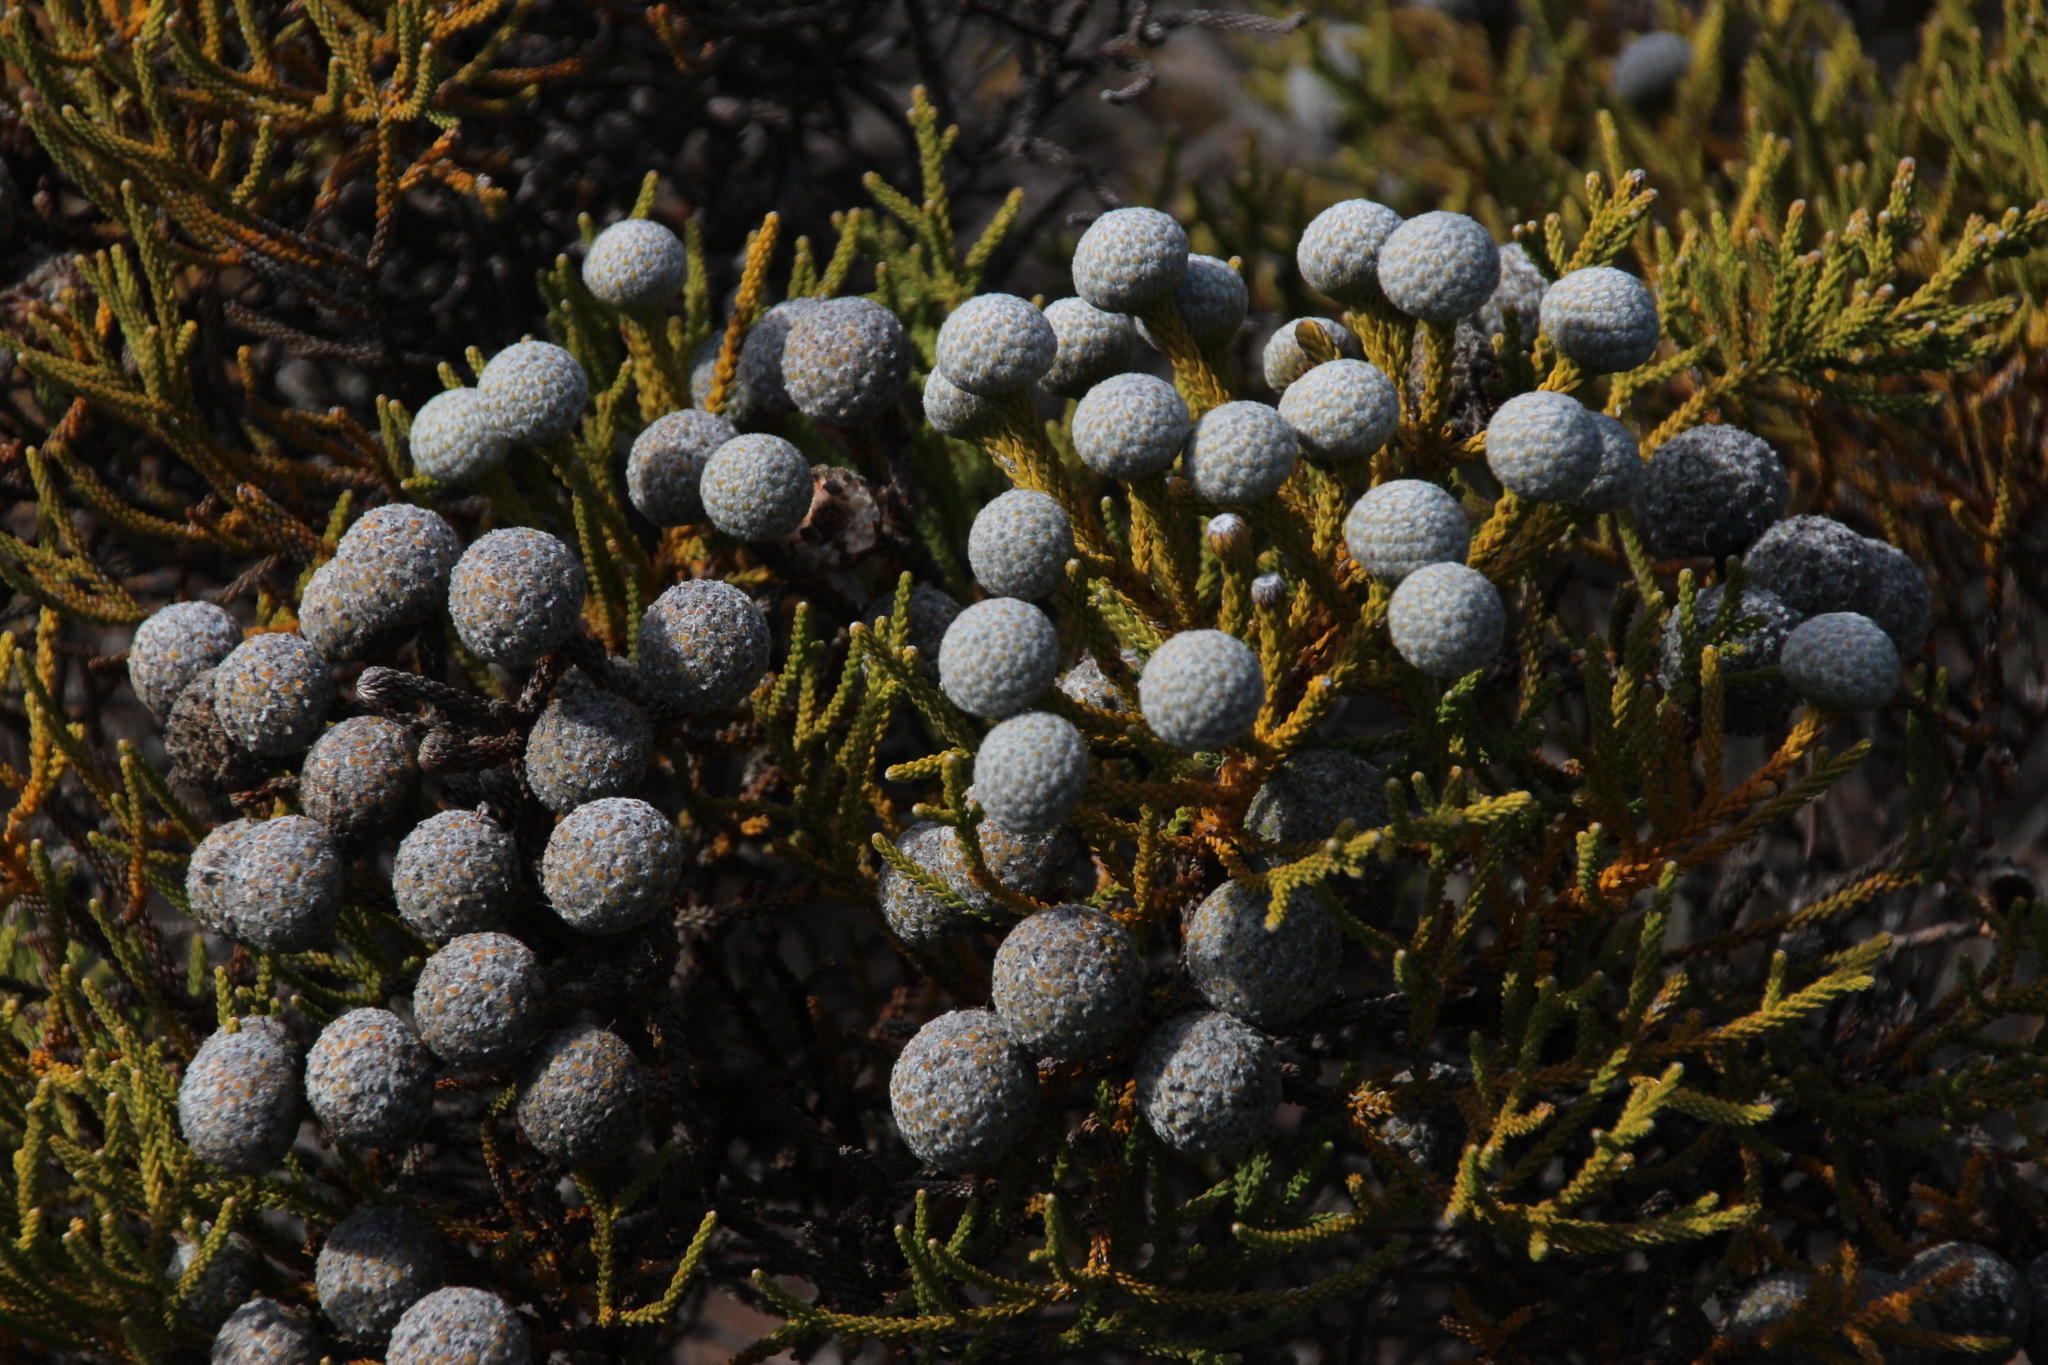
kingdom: Plantae
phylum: Tracheophyta
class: Magnoliopsida
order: Bruniales
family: Bruniaceae
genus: Brunia
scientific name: Brunia noduliflora
